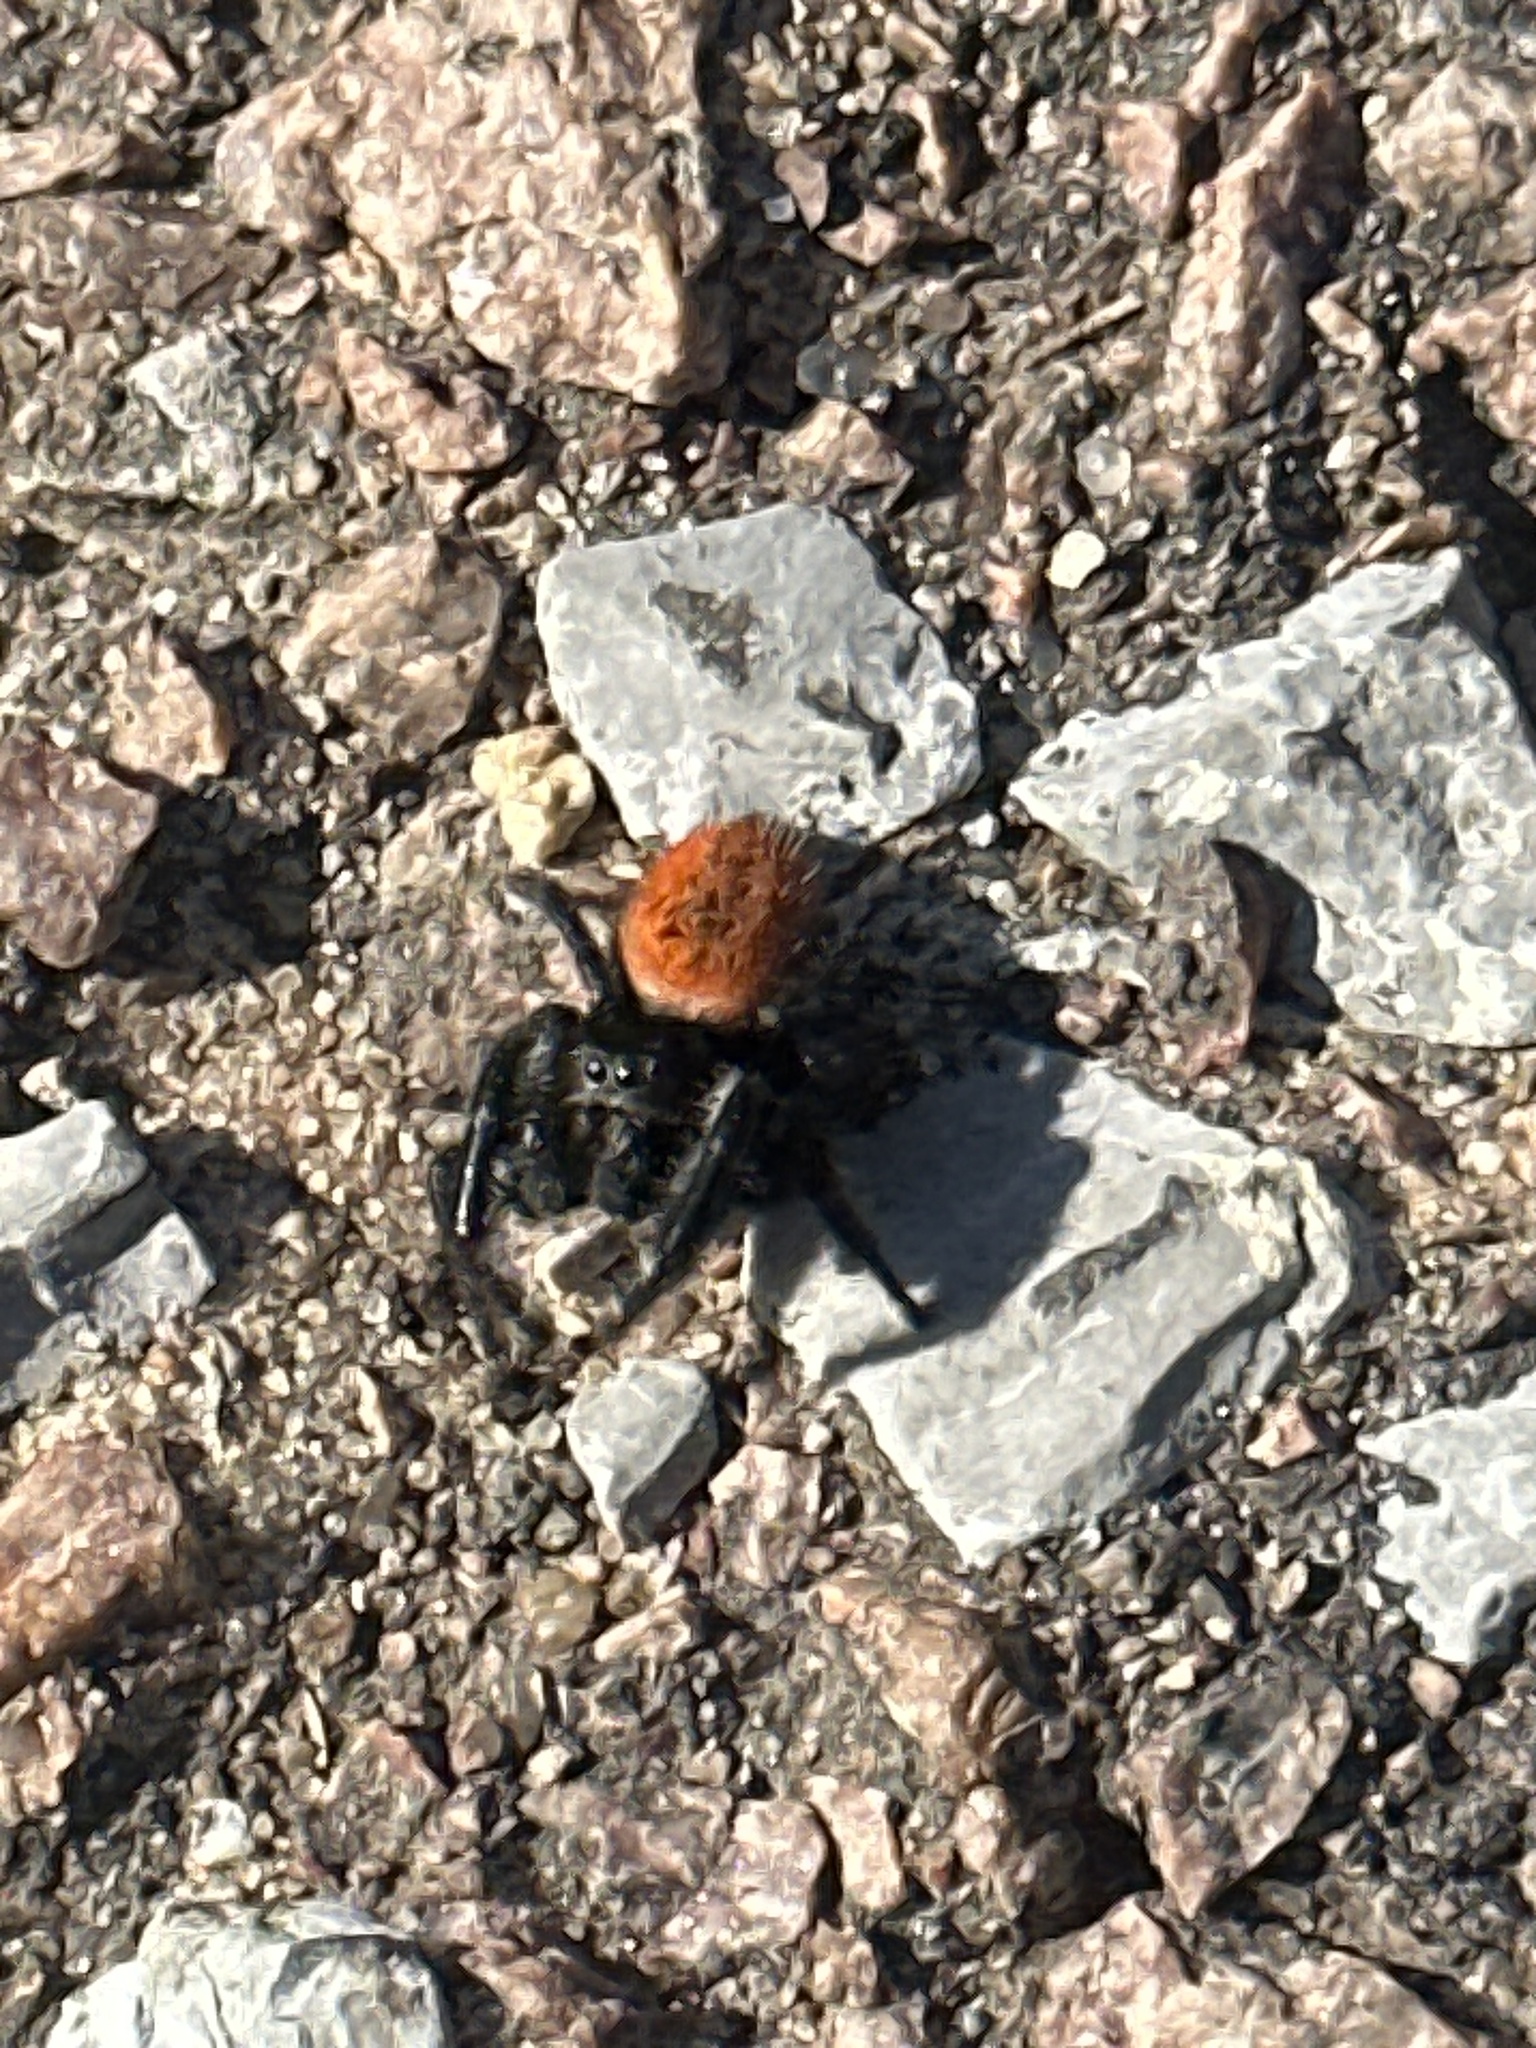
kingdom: Animalia
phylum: Arthropoda
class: Arachnida
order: Araneae
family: Salticidae
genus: Phidippus
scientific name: Phidippus texanus
